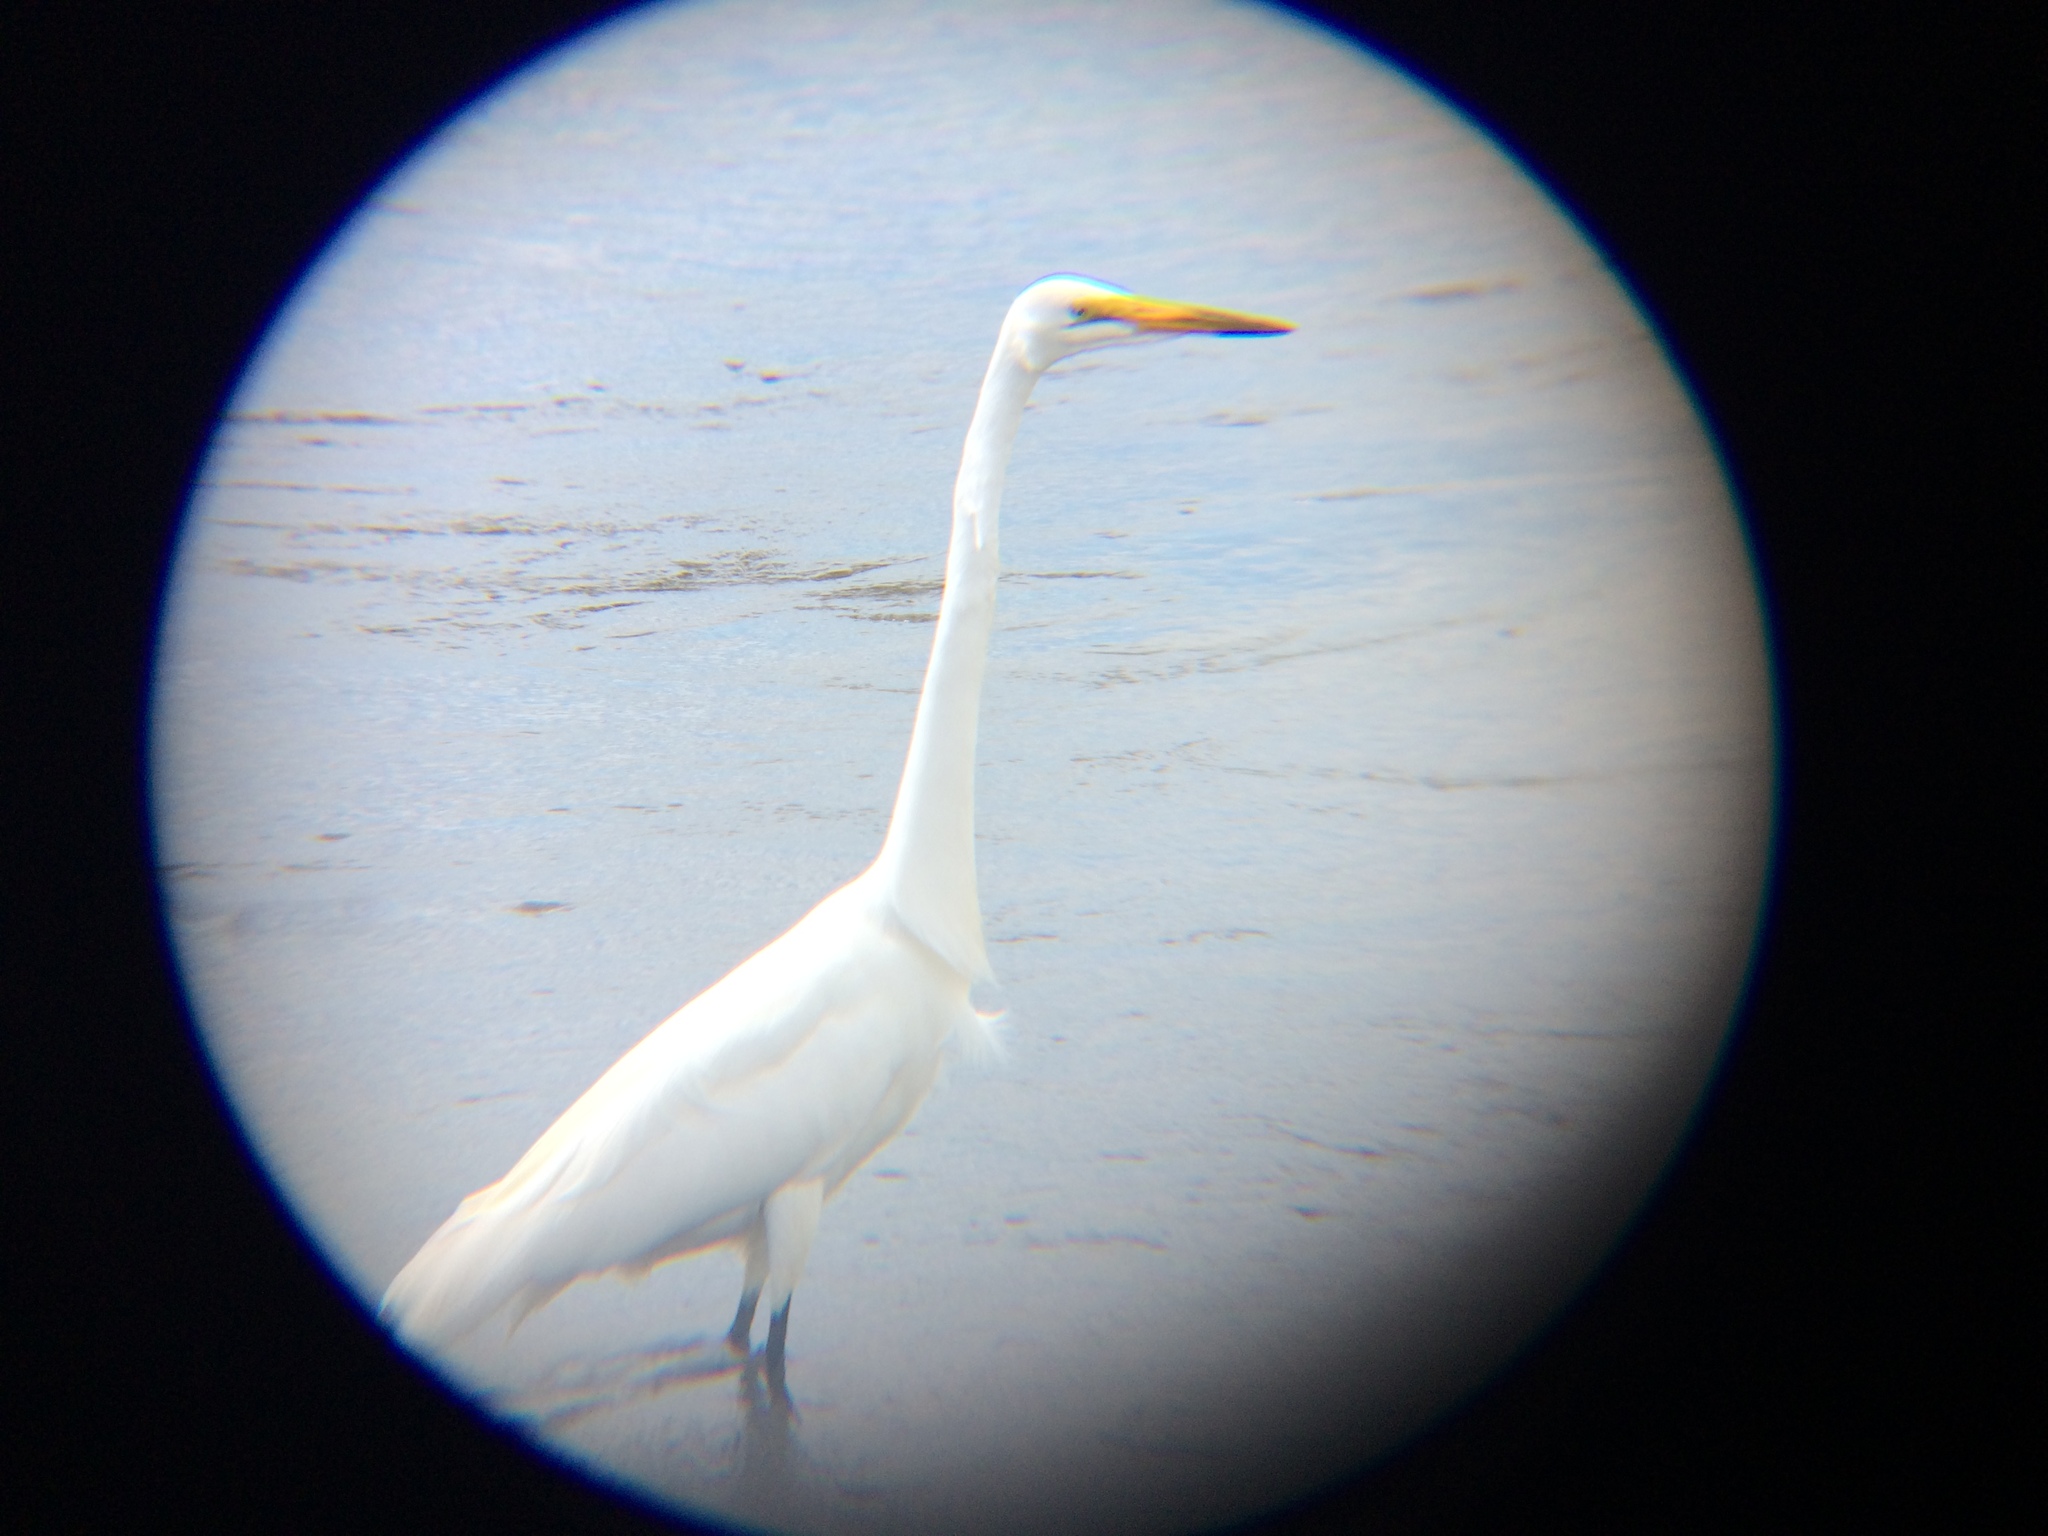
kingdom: Animalia
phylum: Chordata
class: Aves
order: Pelecaniformes
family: Ardeidae
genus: Ardea
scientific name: Ardea alba
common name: Great egret
